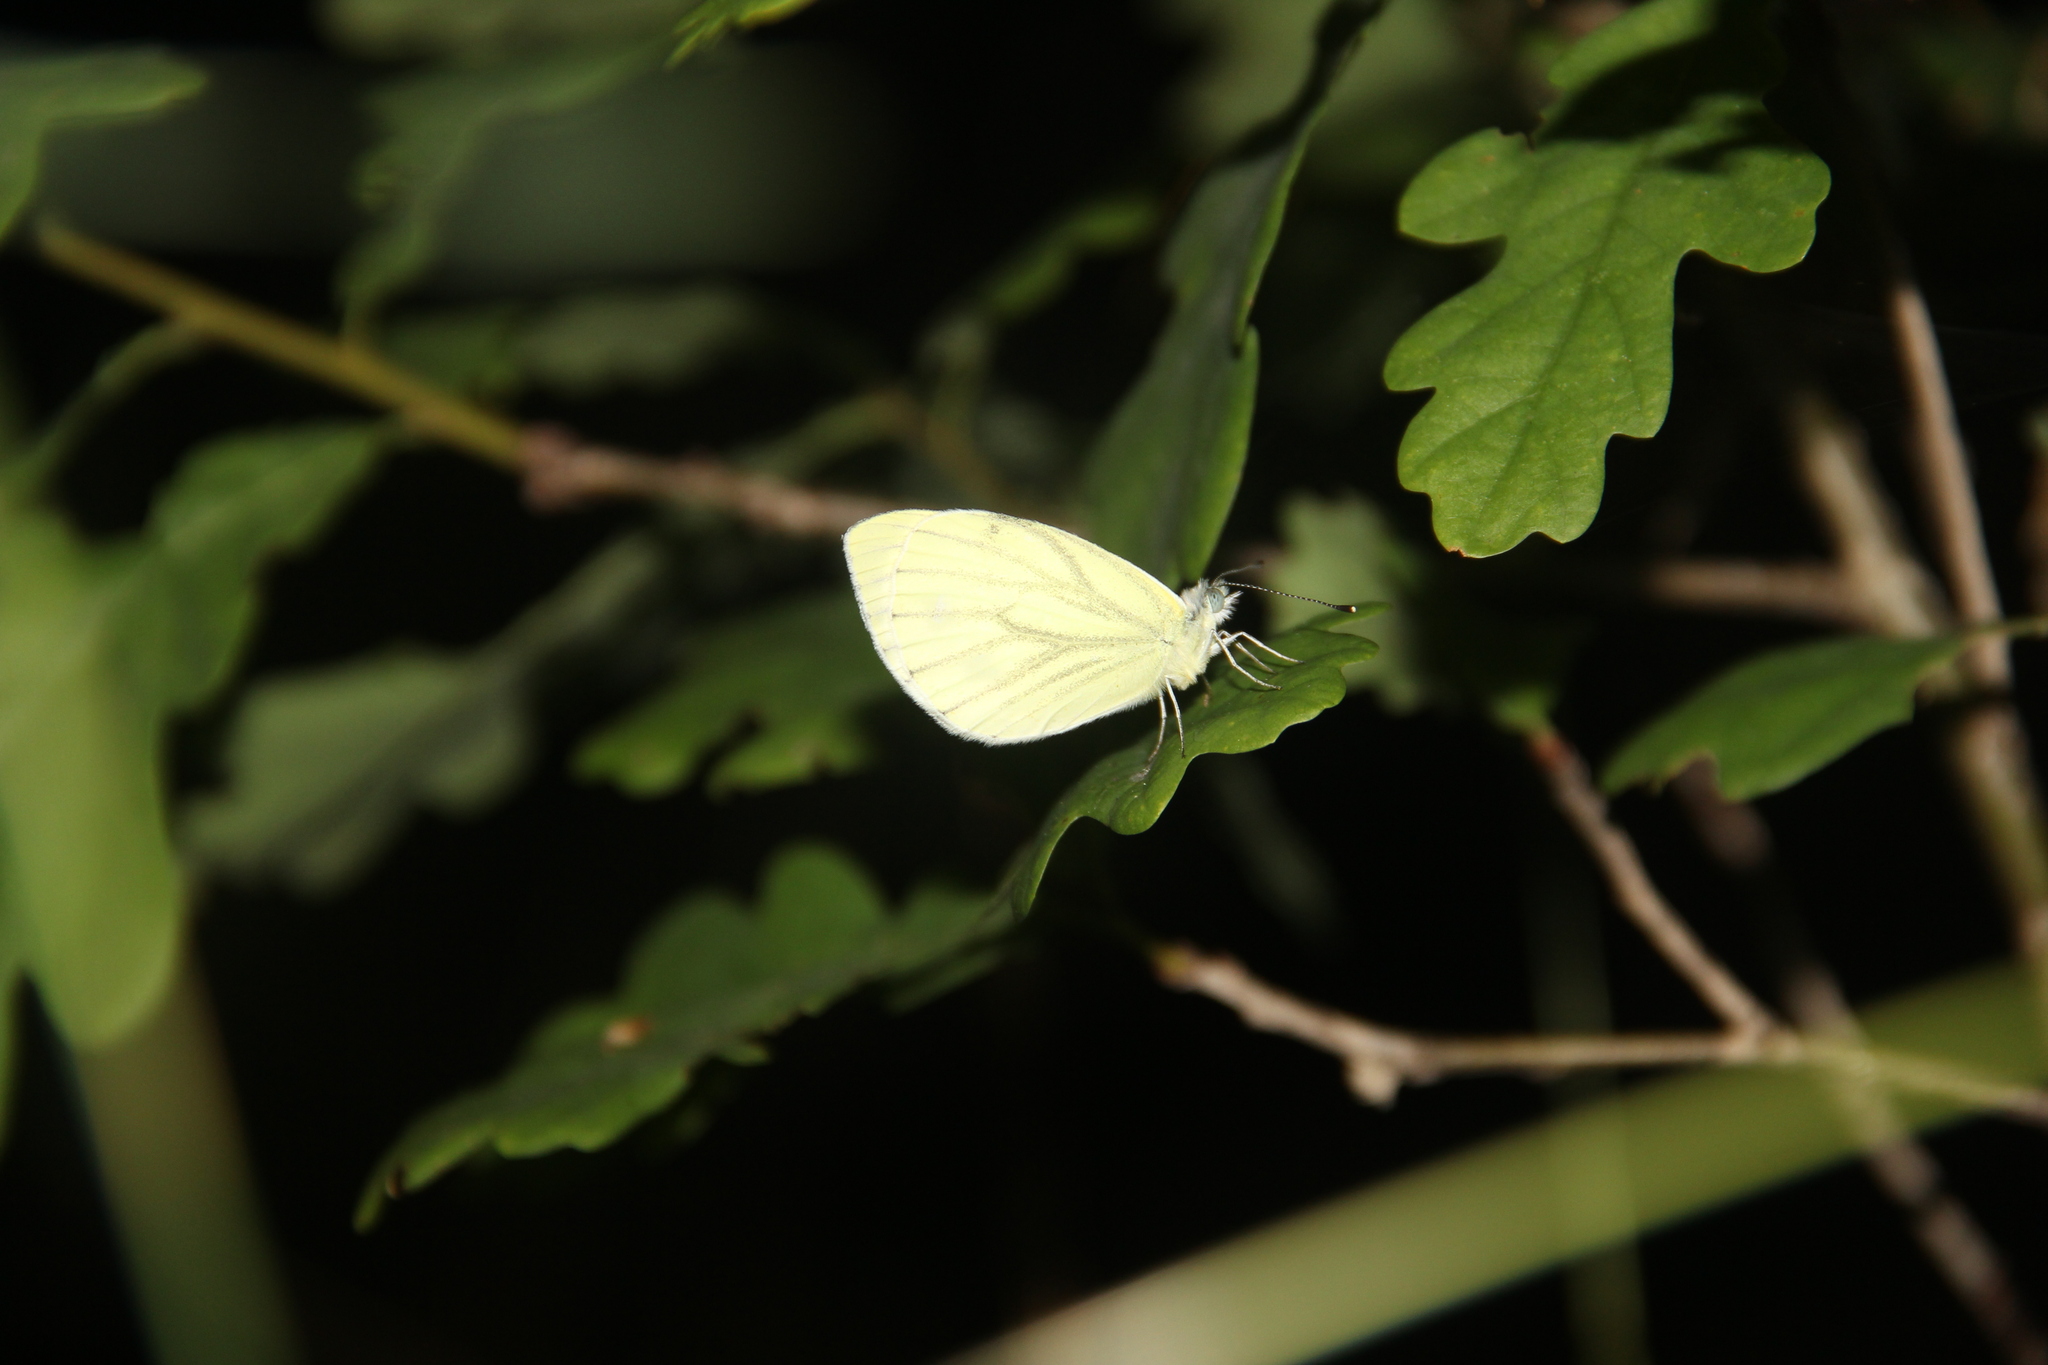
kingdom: Animalia
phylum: Arthropoda
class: Insecta
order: Lepidoptera
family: Pieridae
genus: Pieris
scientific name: Pieris napi
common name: Green-veined white
